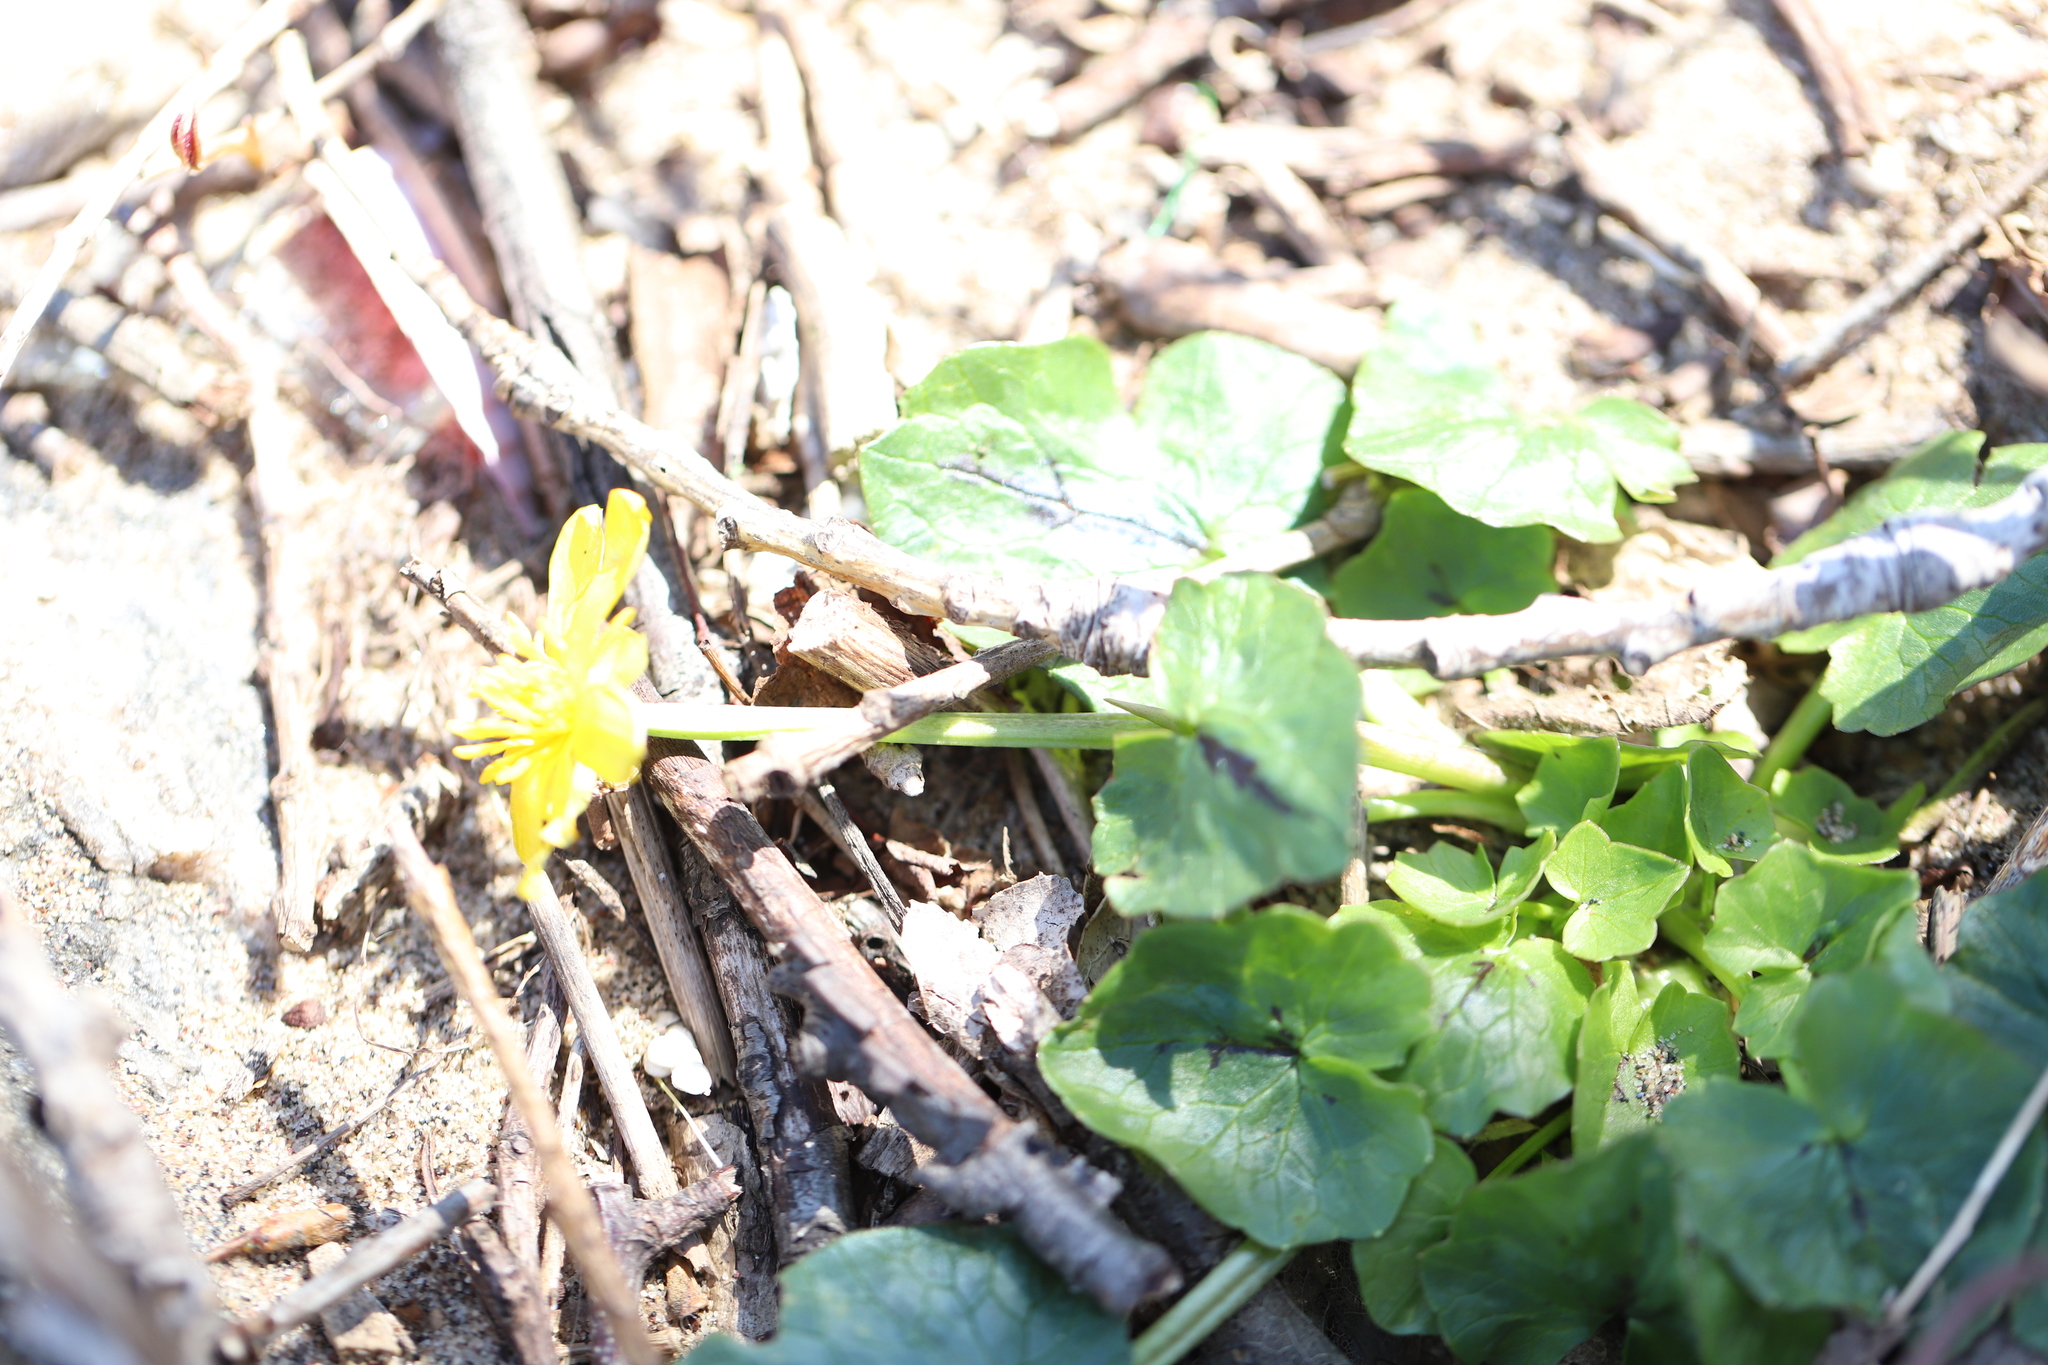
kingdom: Plantae
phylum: Tracheophyta
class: Magnoliopsida
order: Ranunculales
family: Ranunculaceae
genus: Ficaria
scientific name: Ficaria verna
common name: Lesser celandine
